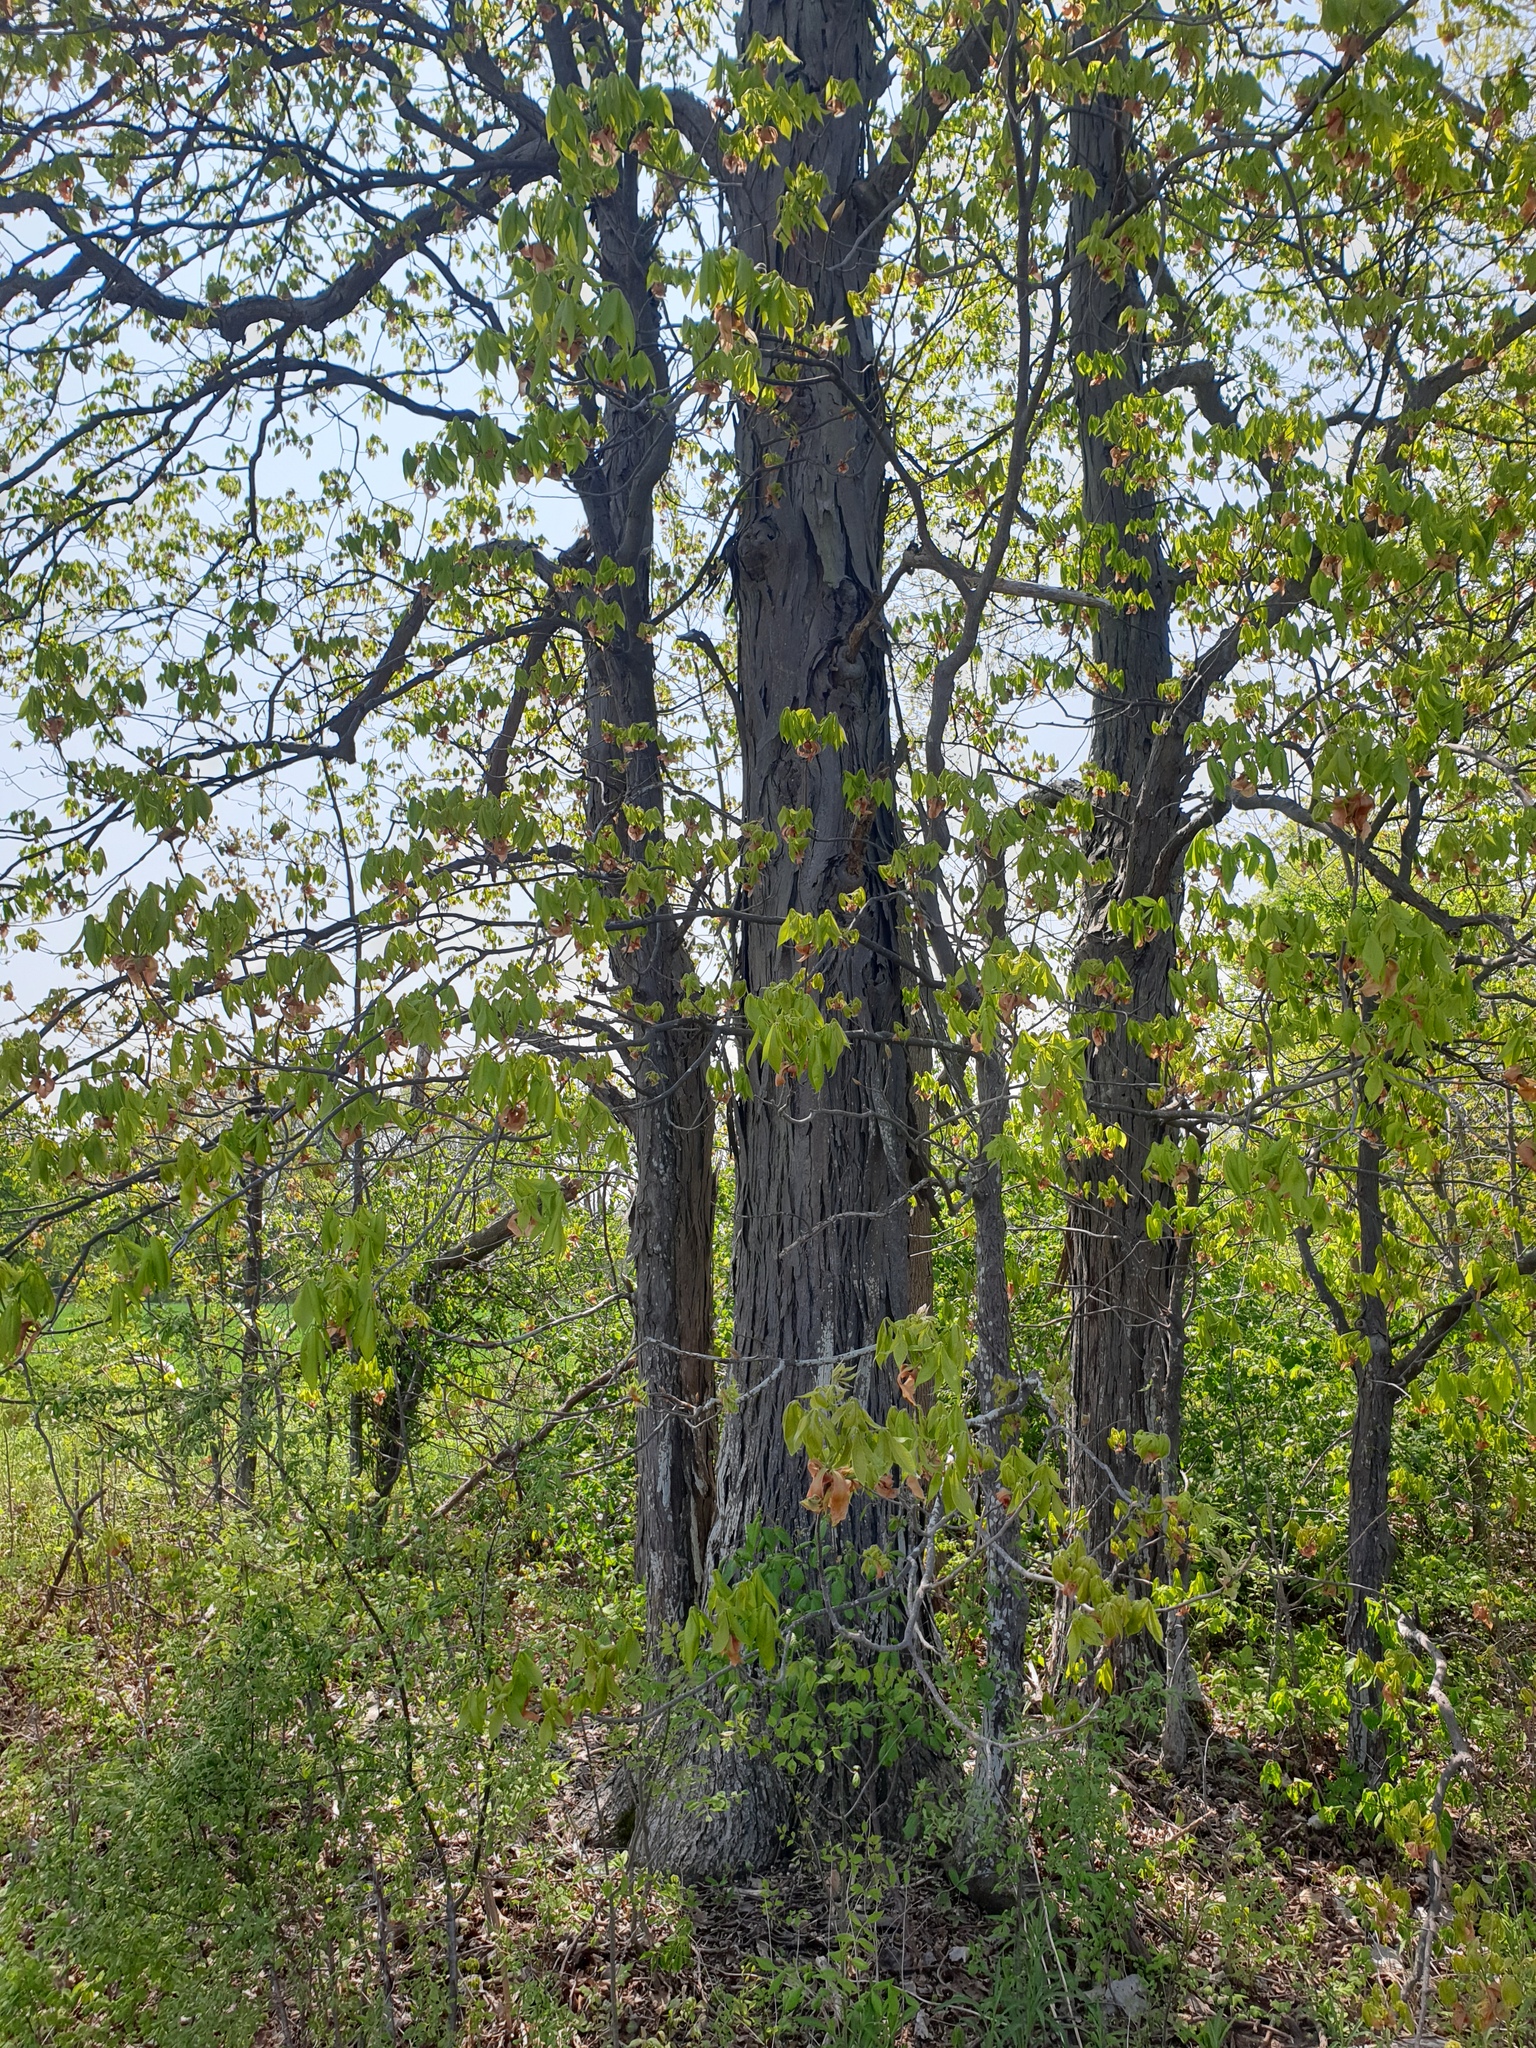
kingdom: Plantae
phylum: Tracheophyta
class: Magnoliopsida
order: Fagales
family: Juglandaceae
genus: Carya
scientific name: Carya ovata
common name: Shagbark hickory
